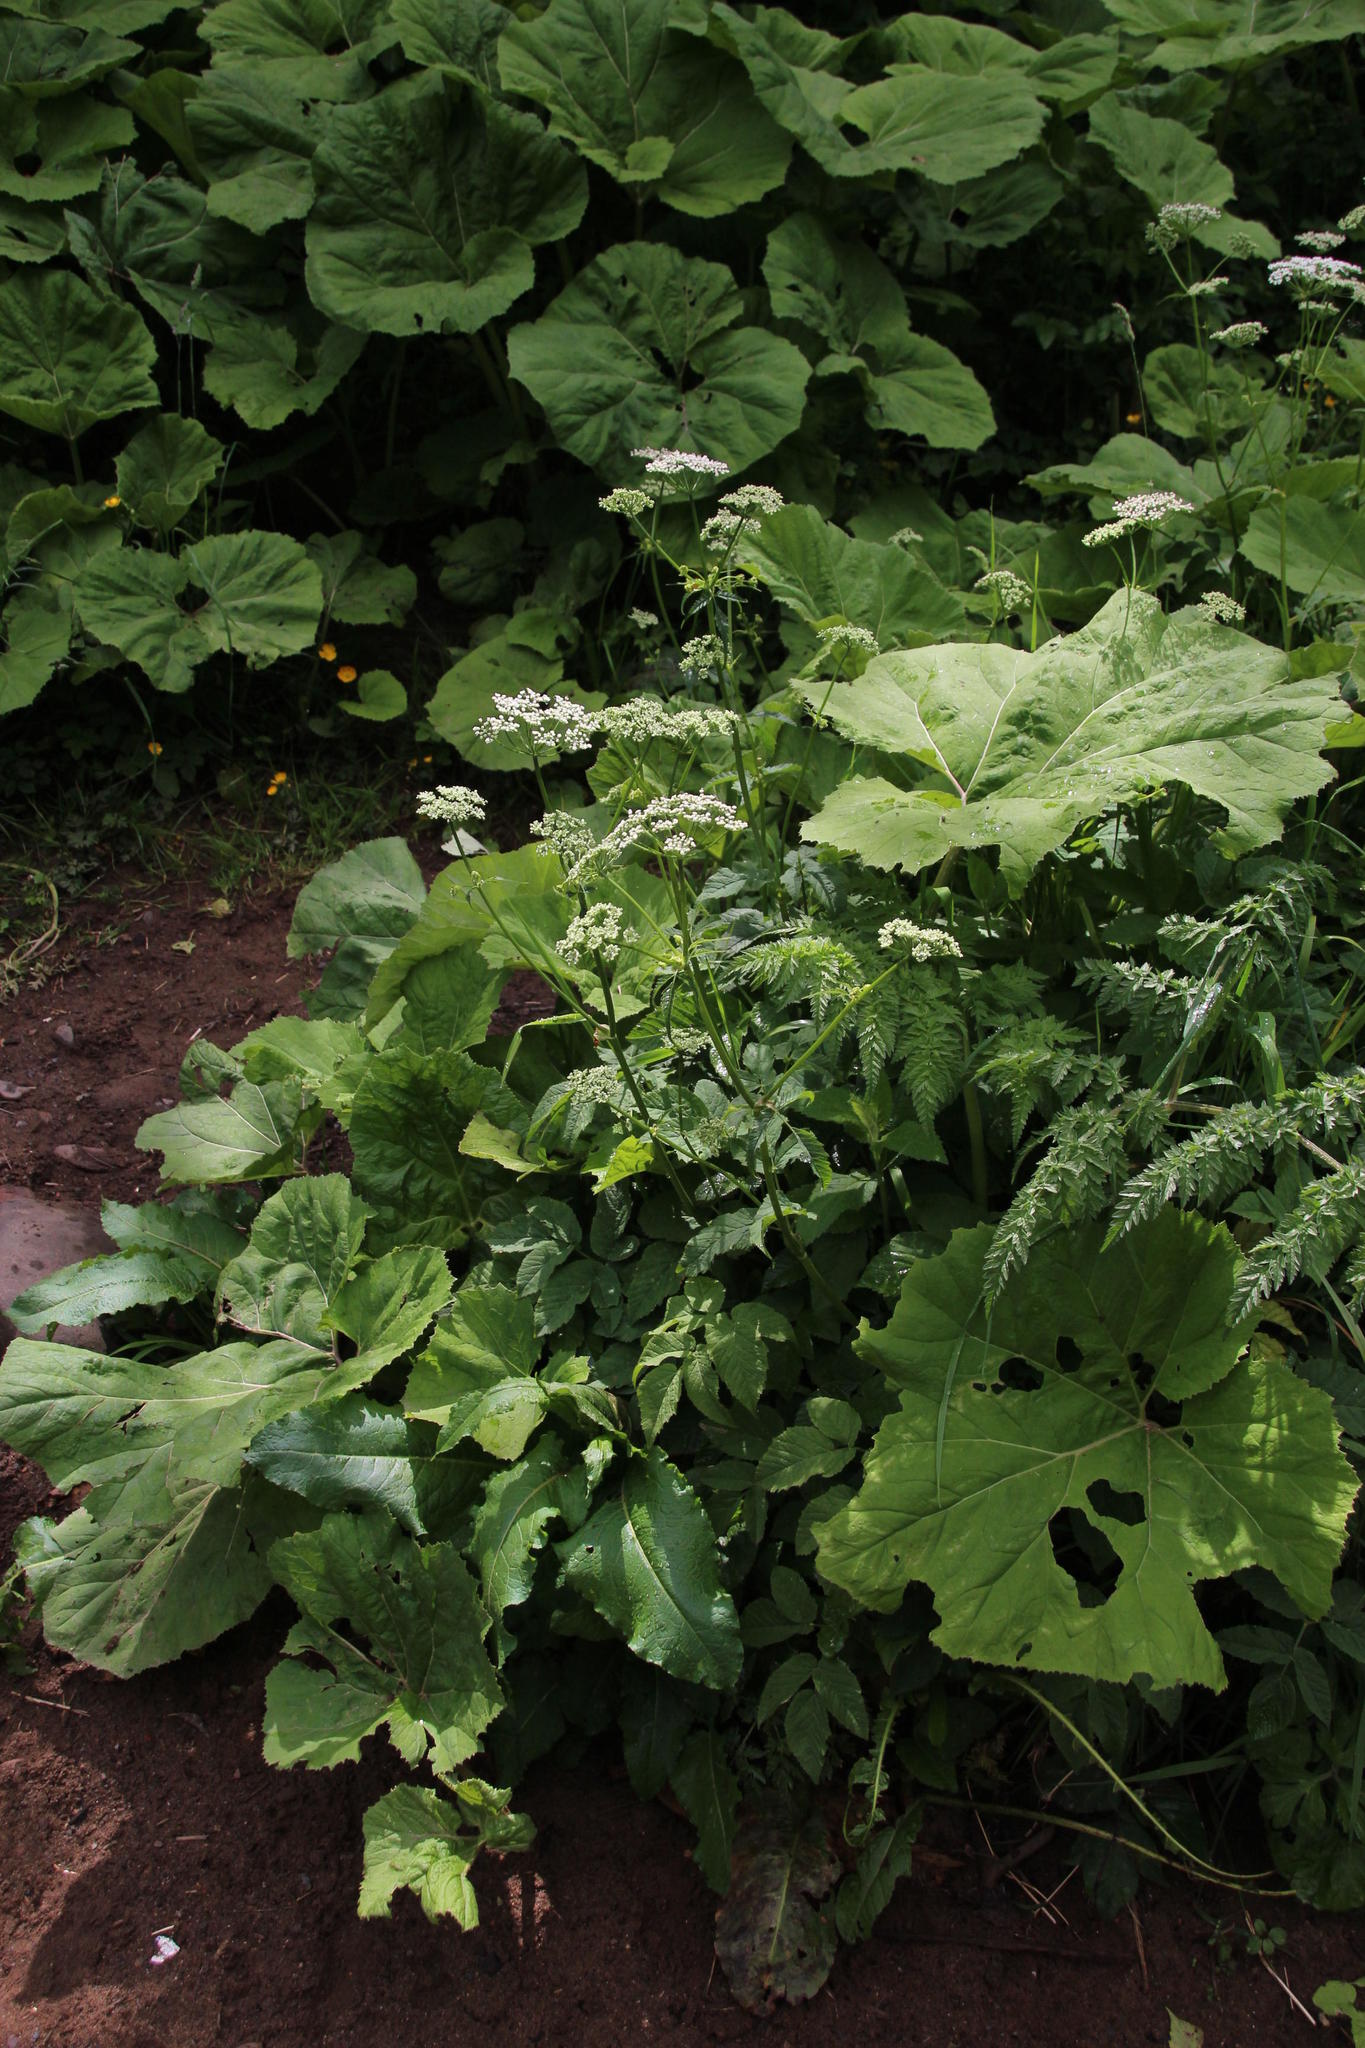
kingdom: Plantae
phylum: Tracheophyta
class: Magnoliopsida
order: Apiales
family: Apiaceae
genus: Aegopodium
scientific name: Aegopodium podagraria
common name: Ground-elder
